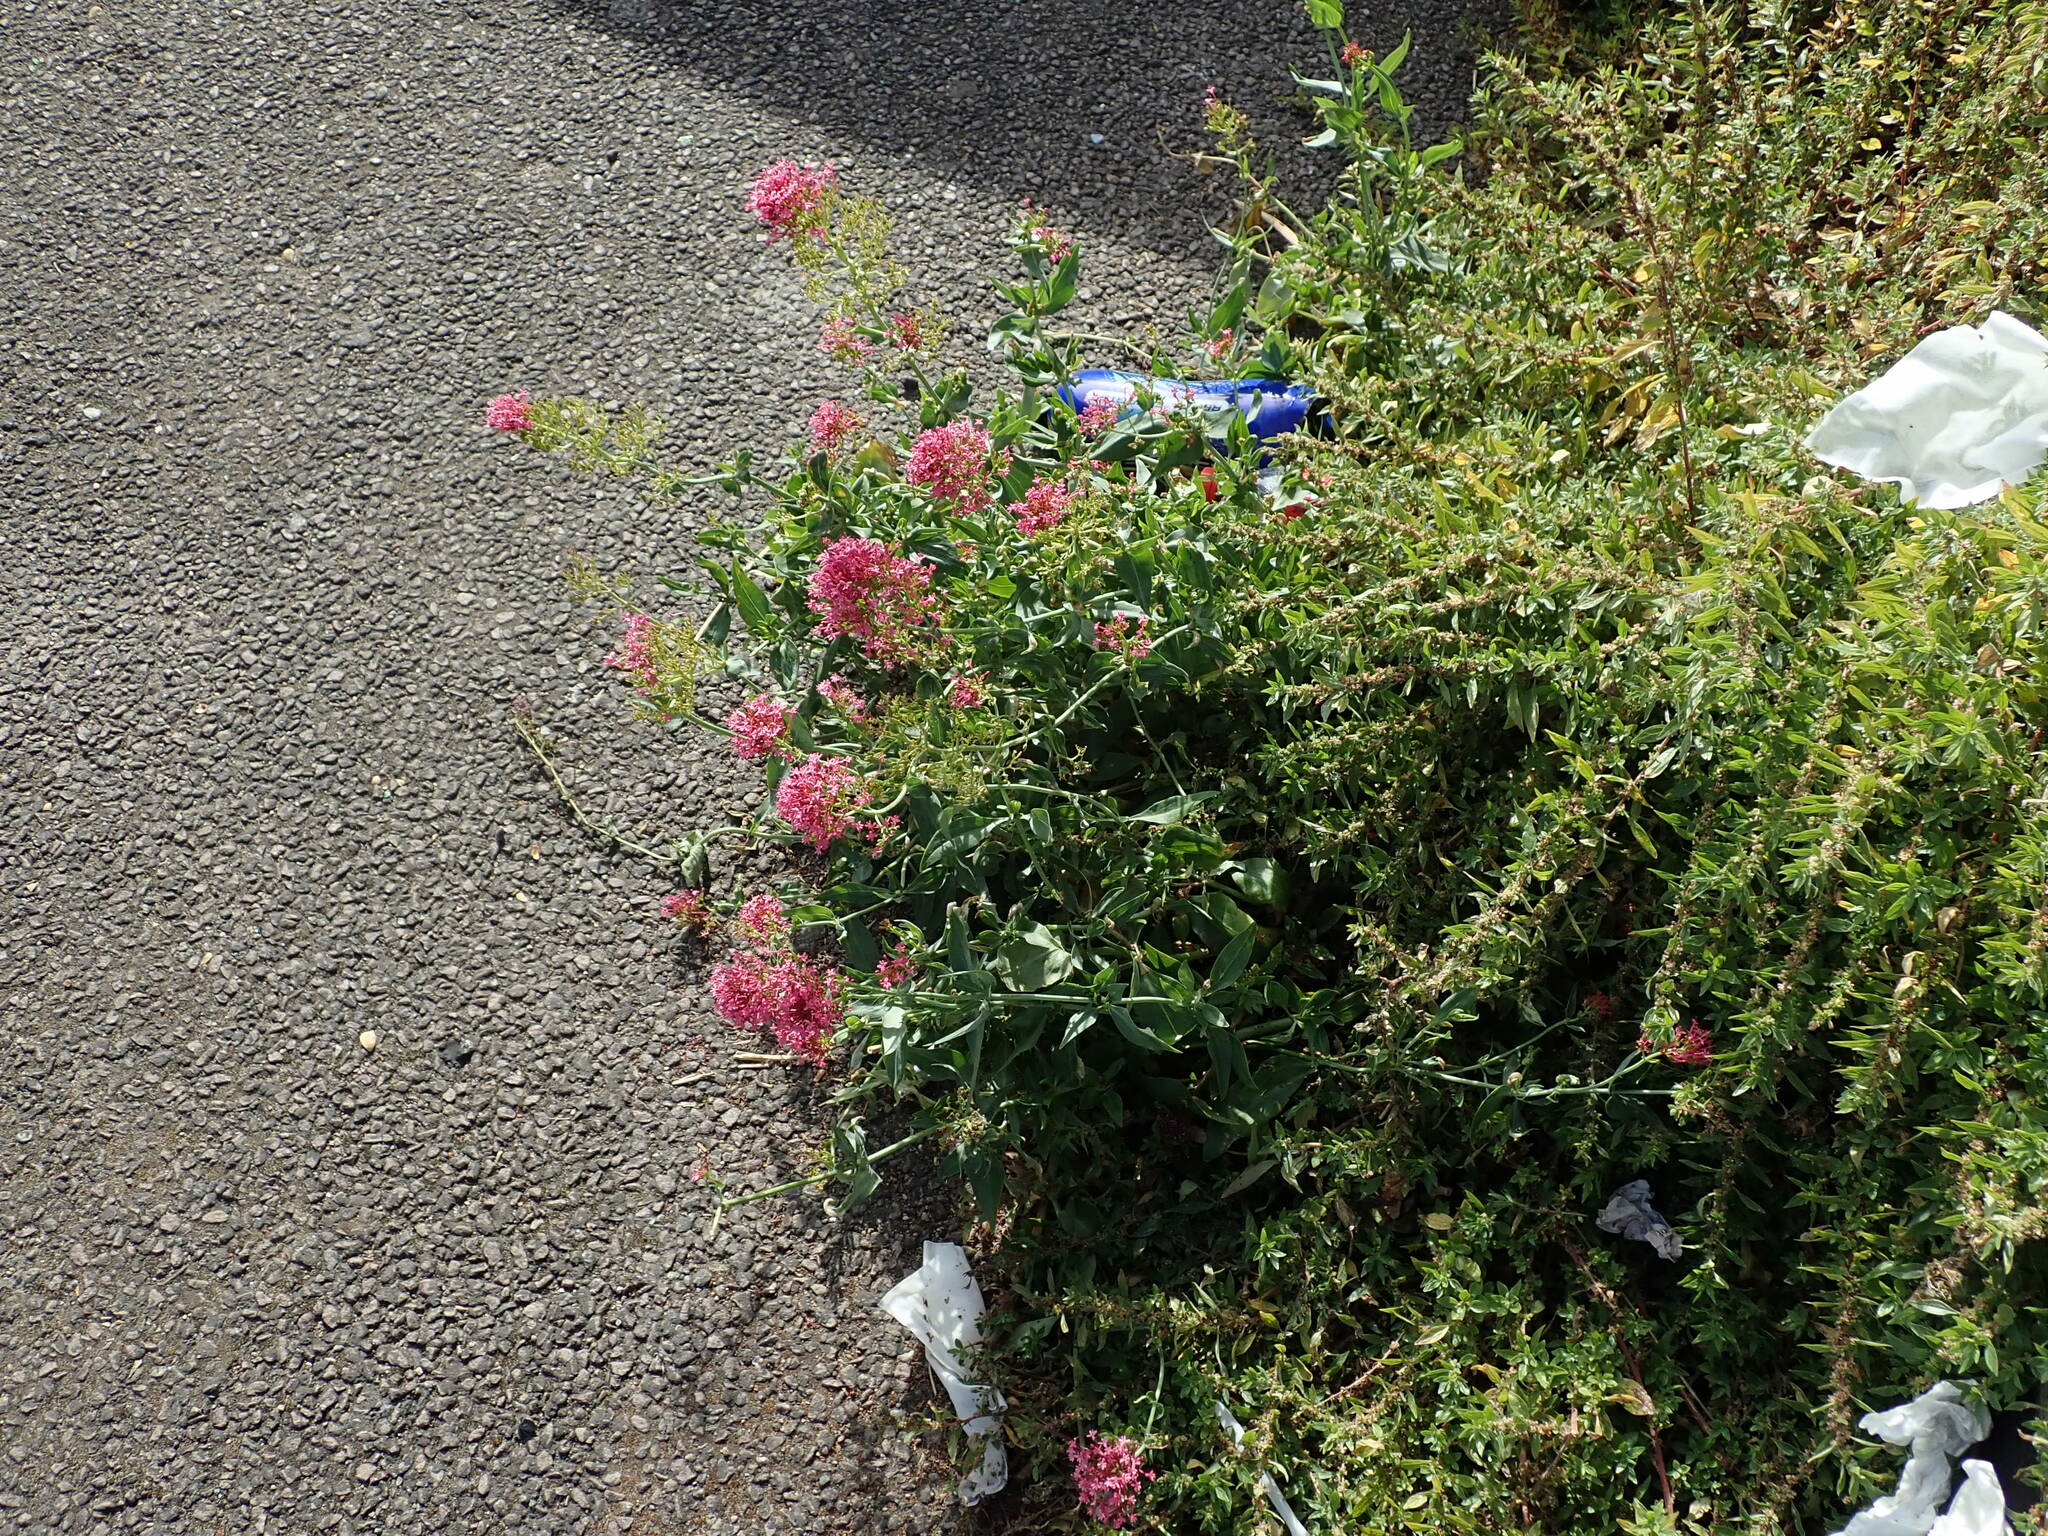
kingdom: Plantae
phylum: Tracheophyta
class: Magnoliopsida
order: Dipsacales
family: Caprifoliaceae
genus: Centranthus
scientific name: Centranthus ruber
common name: Red valerian
